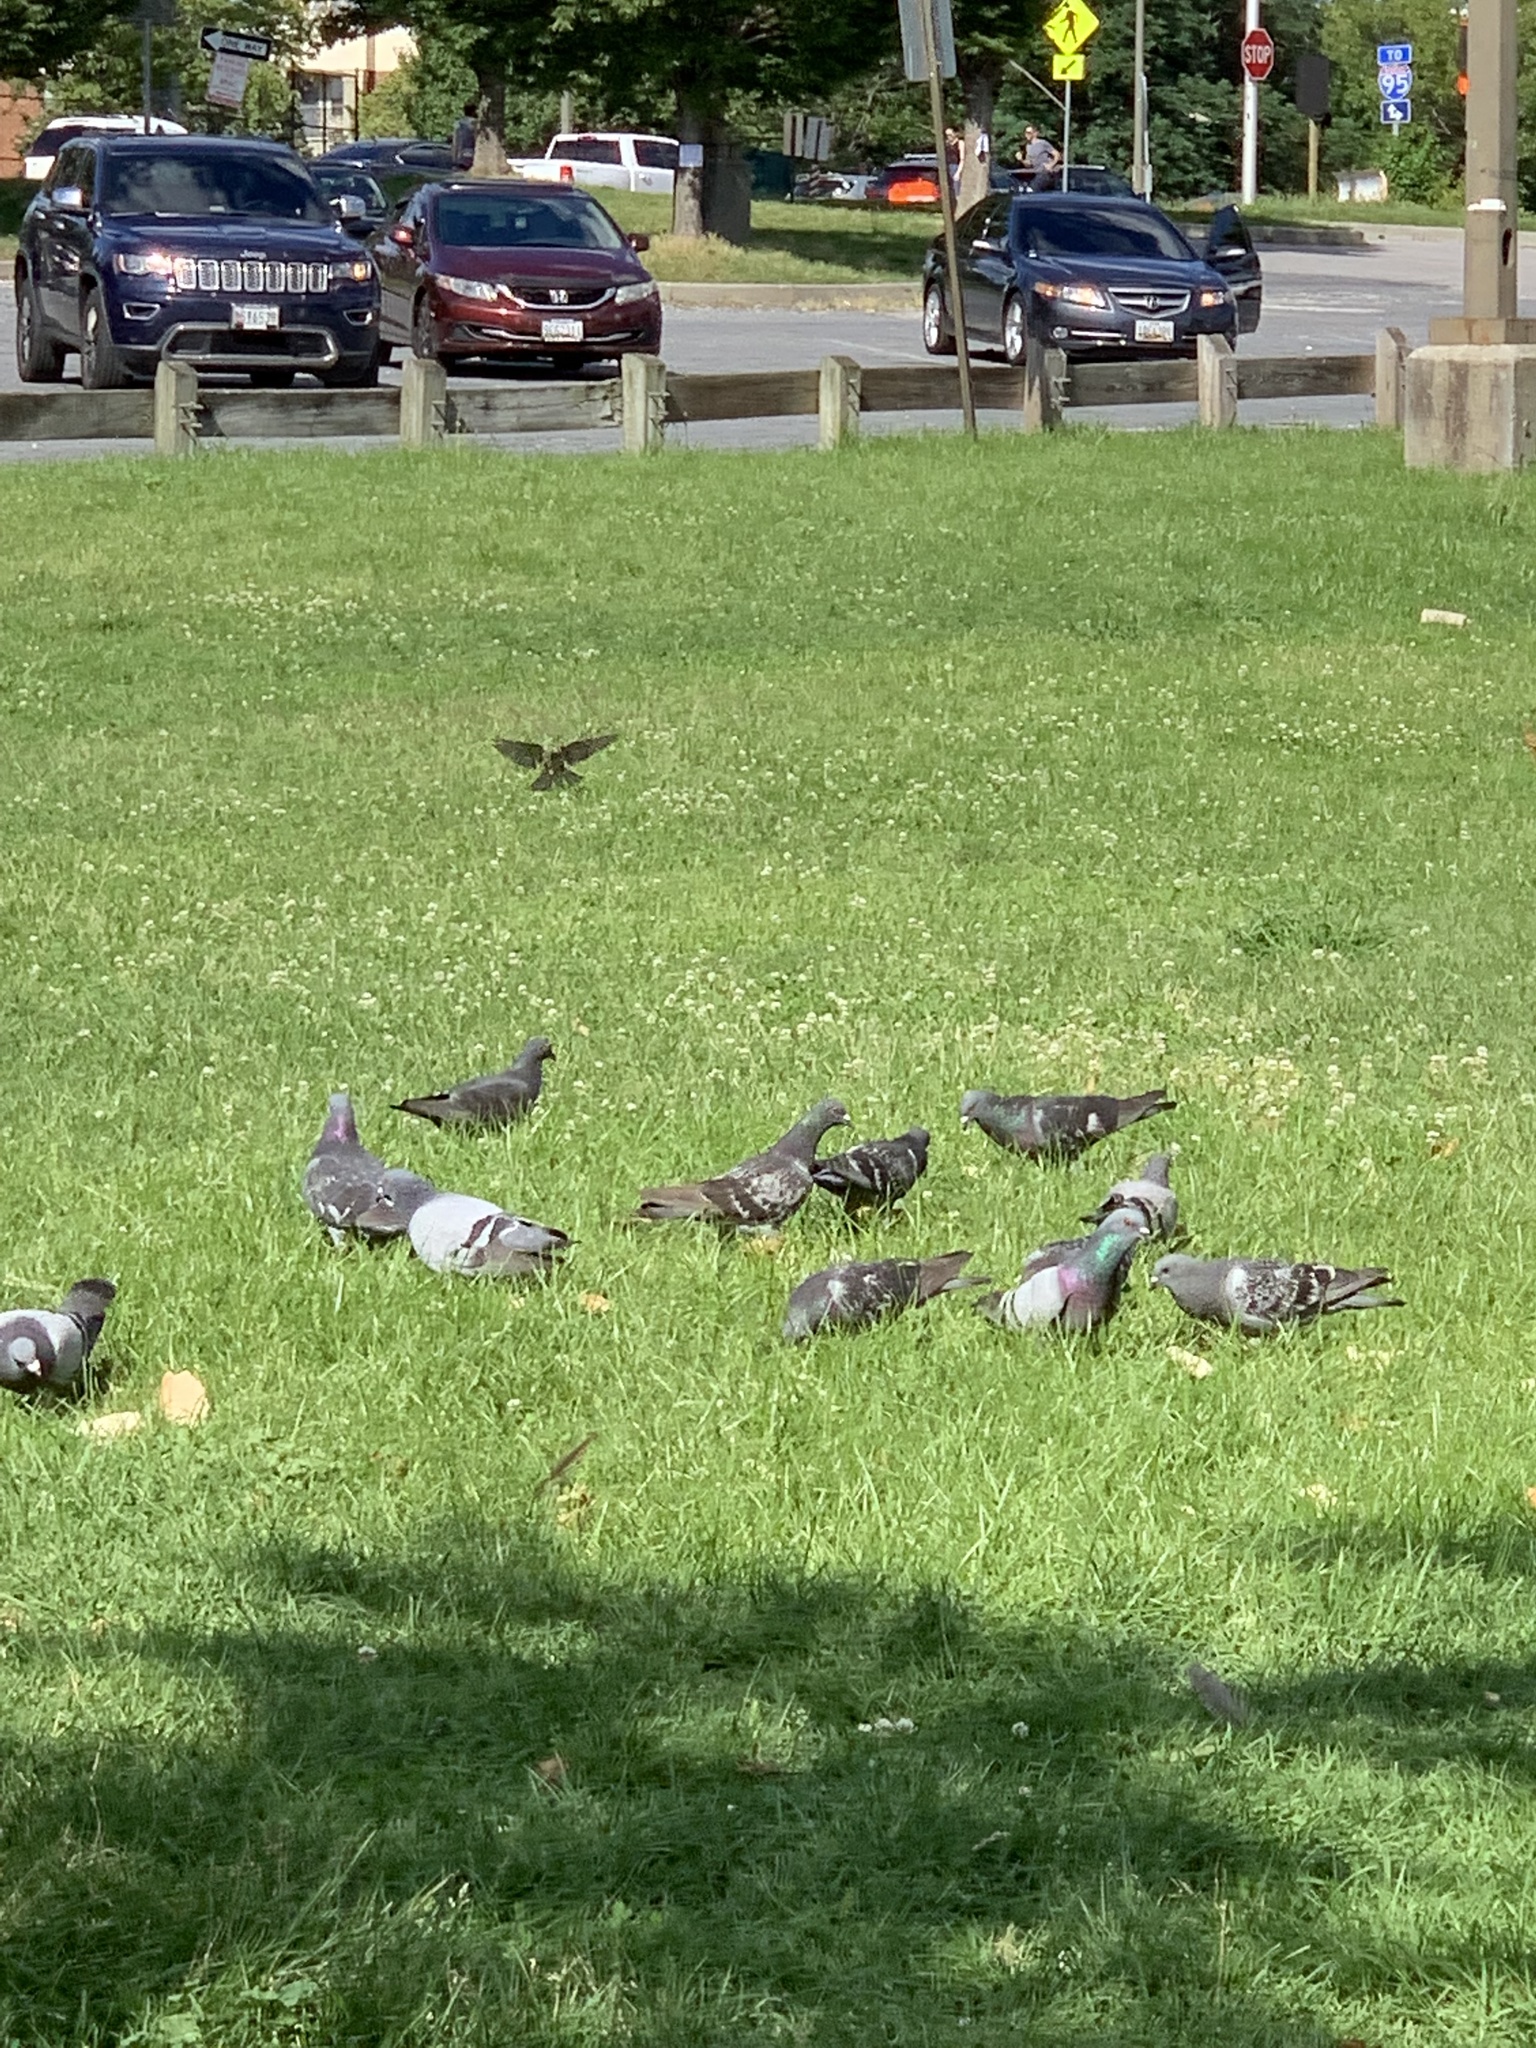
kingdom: Animalia
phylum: Chordata
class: Aves
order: Columbiformes
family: Columbidae
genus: Columba
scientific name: Columba livia
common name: Rock pigeon
